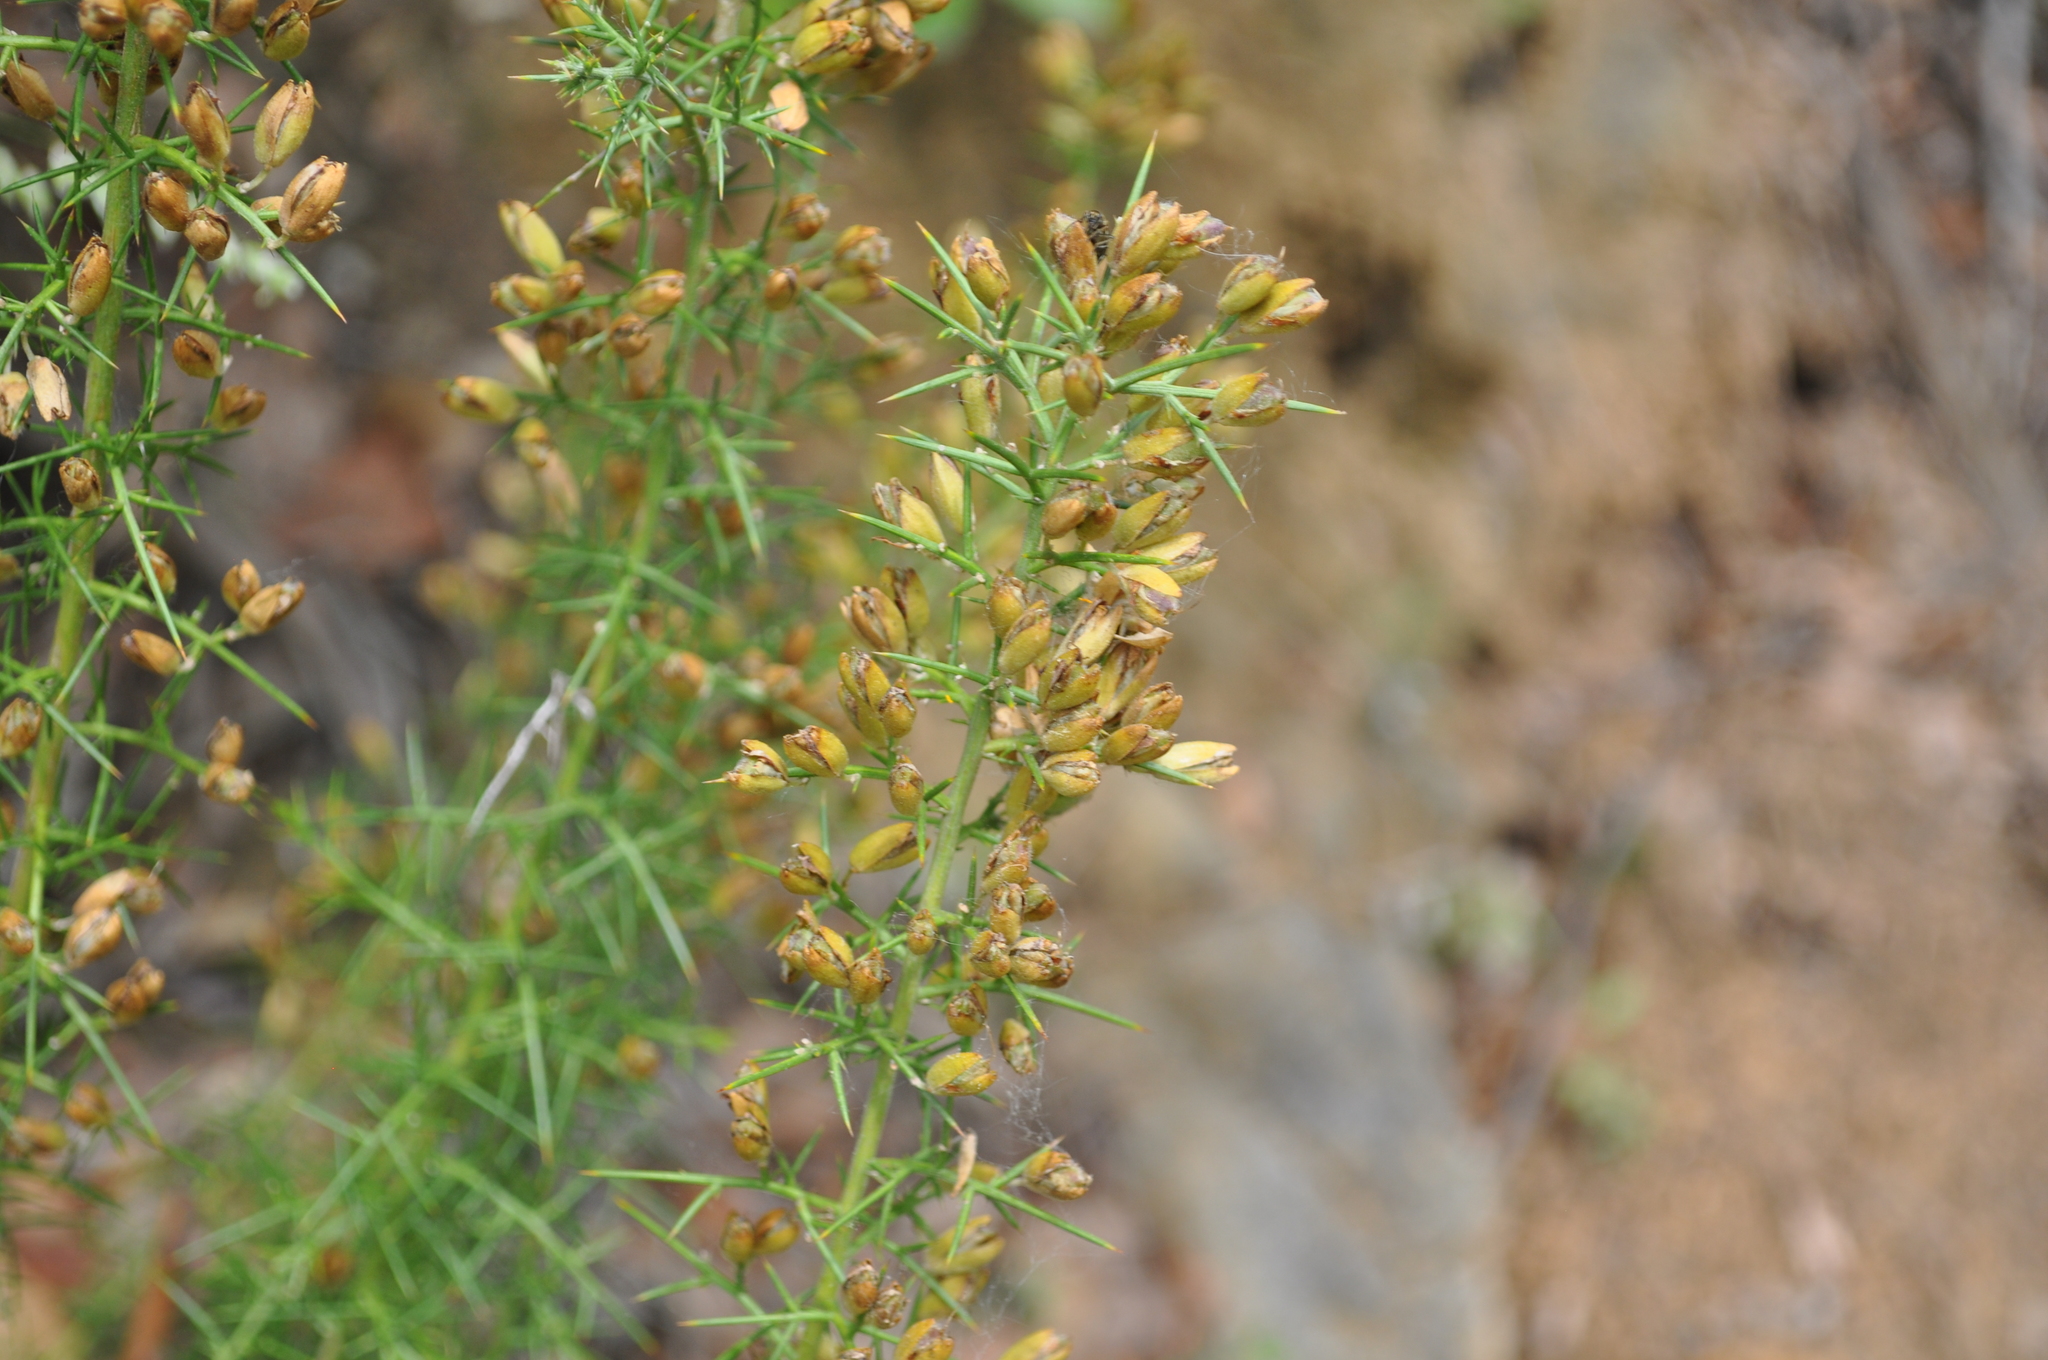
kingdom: Plantae
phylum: Tracheophyta
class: Magnoliopsida
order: Fabales
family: Fabaceae
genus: Ulex
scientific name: Ulex parviflorus
